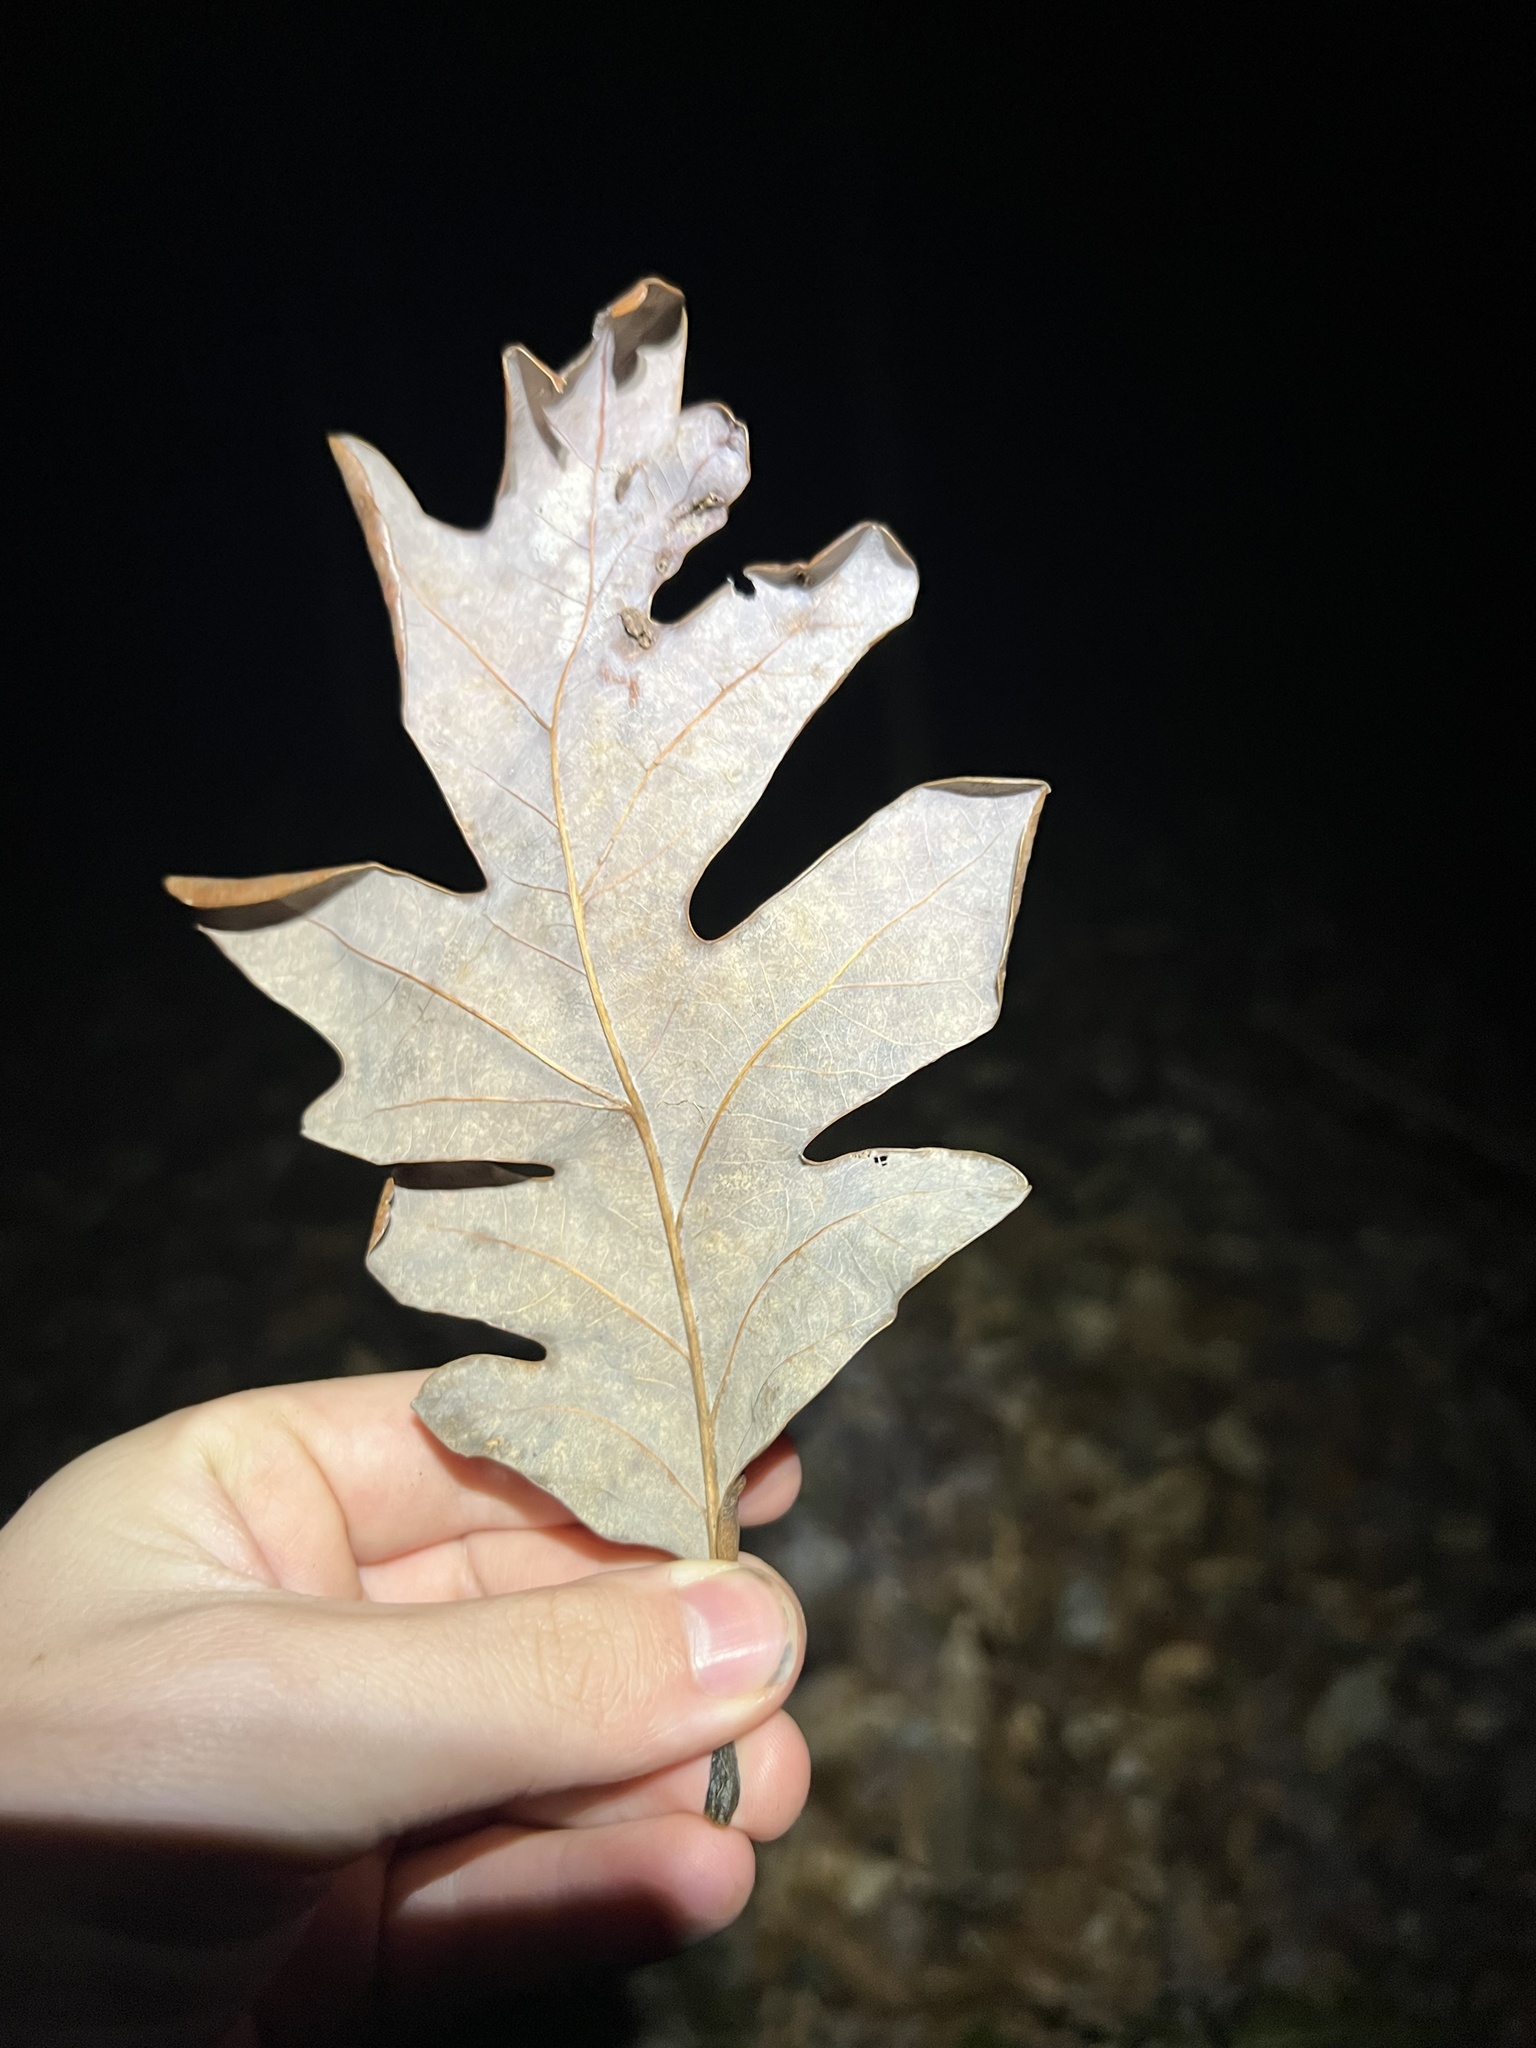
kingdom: Plantae
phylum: Tracheophyta
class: Magnoliopsida
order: Fagales
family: Fagaceae
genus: Quercus
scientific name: Quercus alba
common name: White oak
